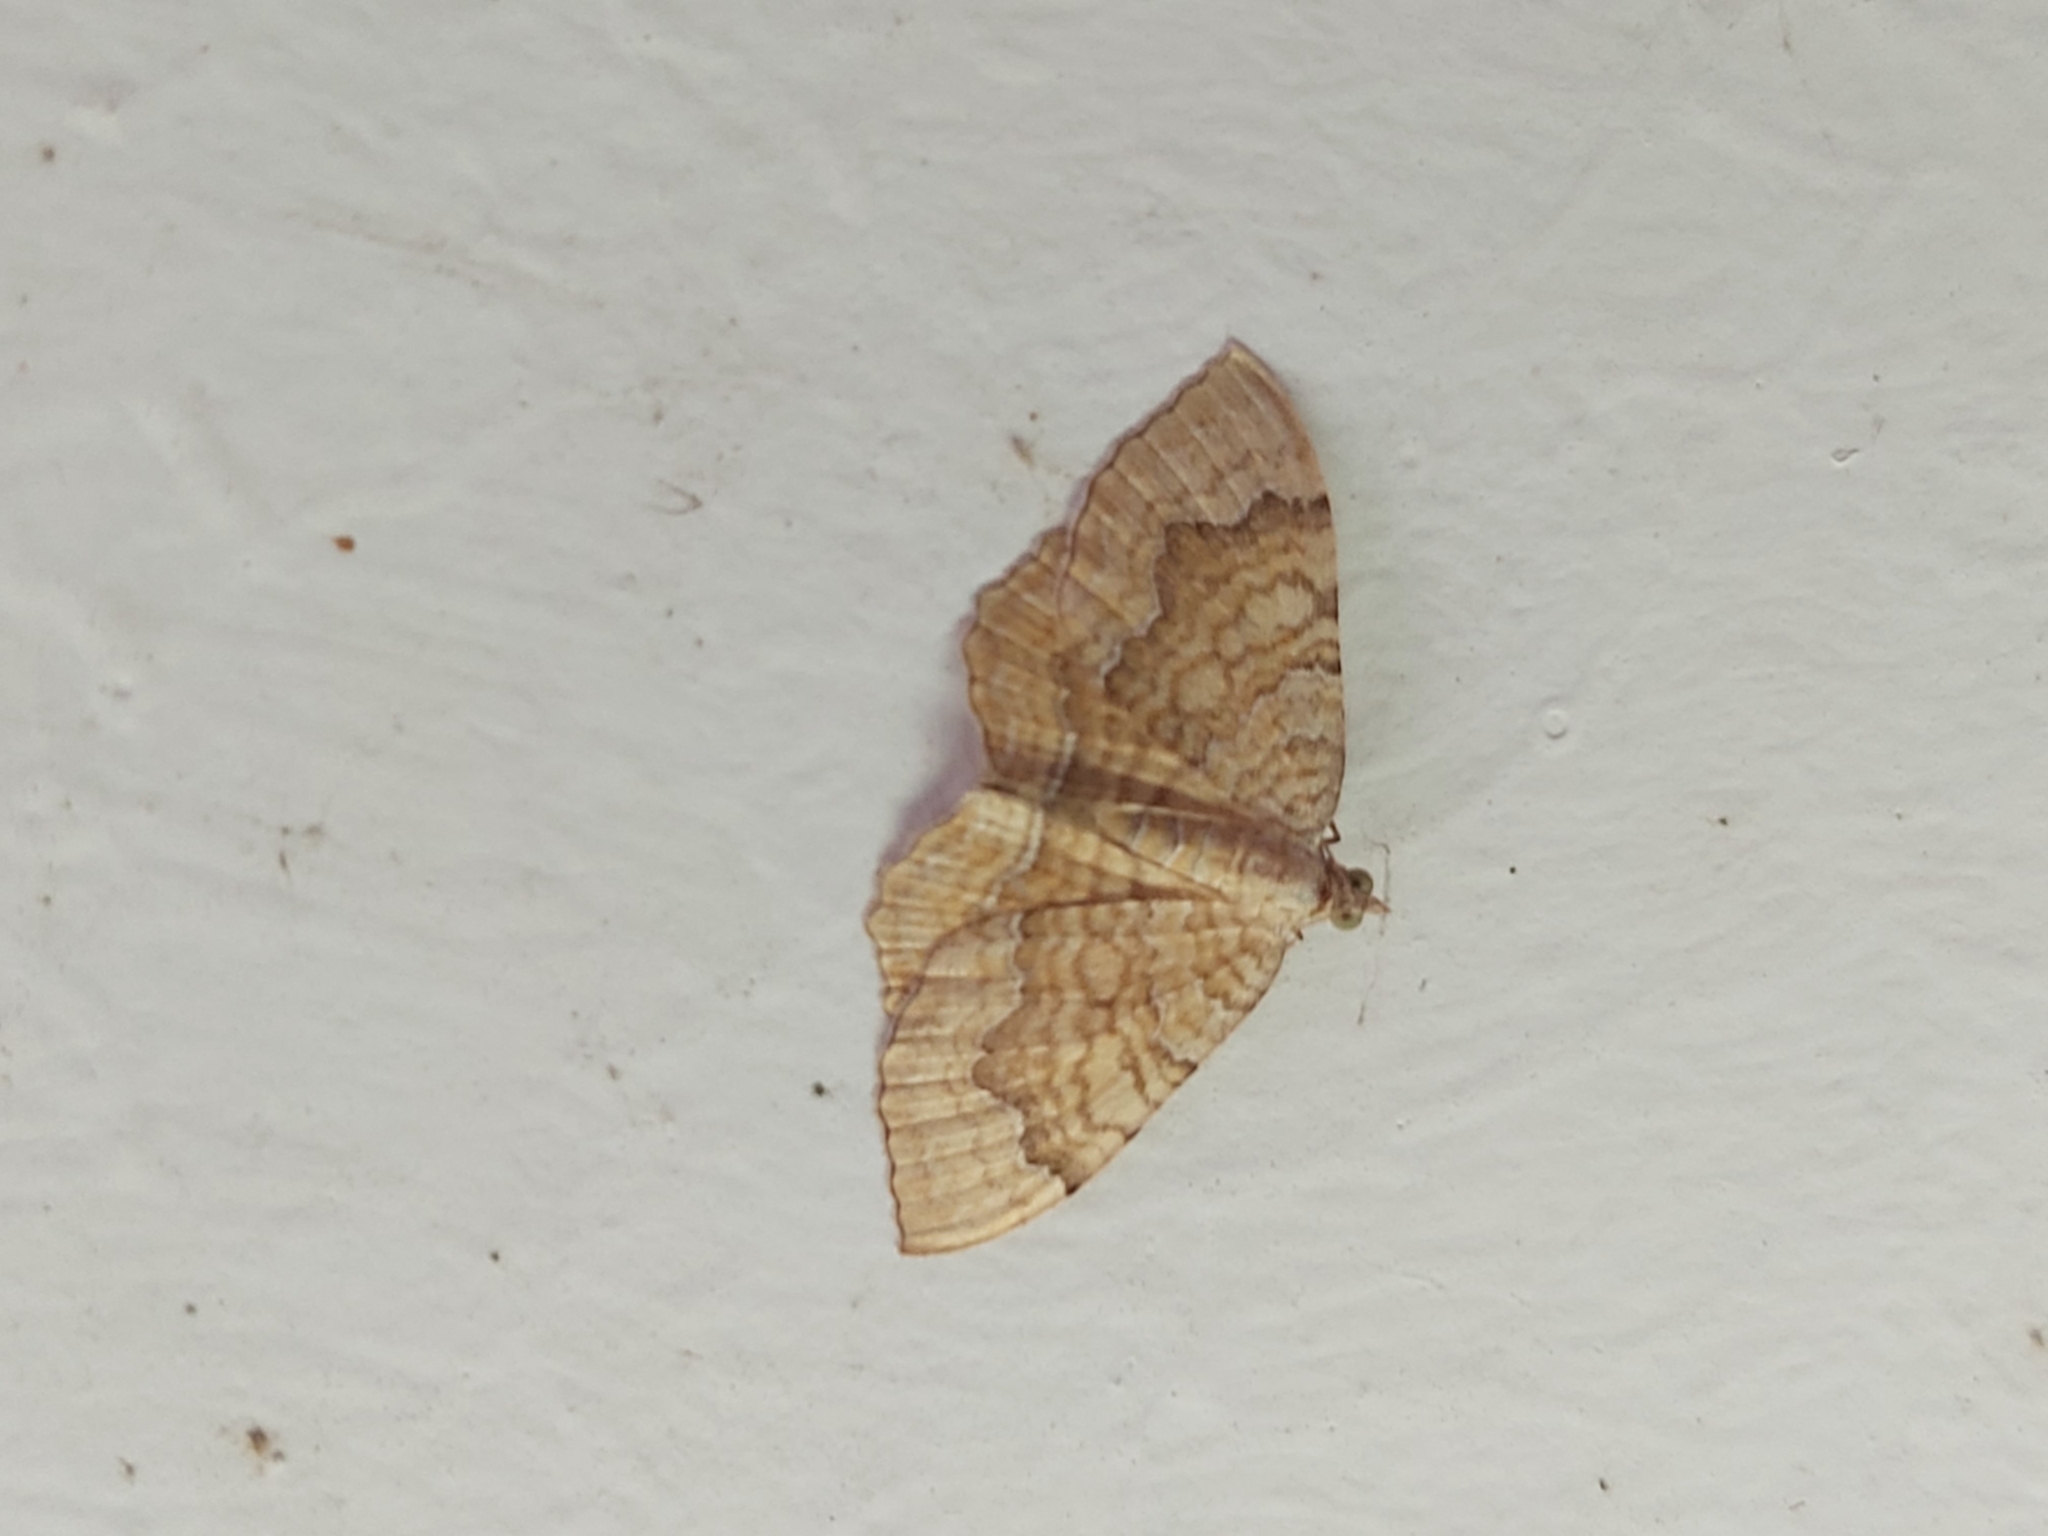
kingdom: Animalia
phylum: Arthropoda
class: Insecta
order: Lepidoptera
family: Geometridae
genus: Camptogramma
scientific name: Camptogramma bilineata
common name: Yellow shell
